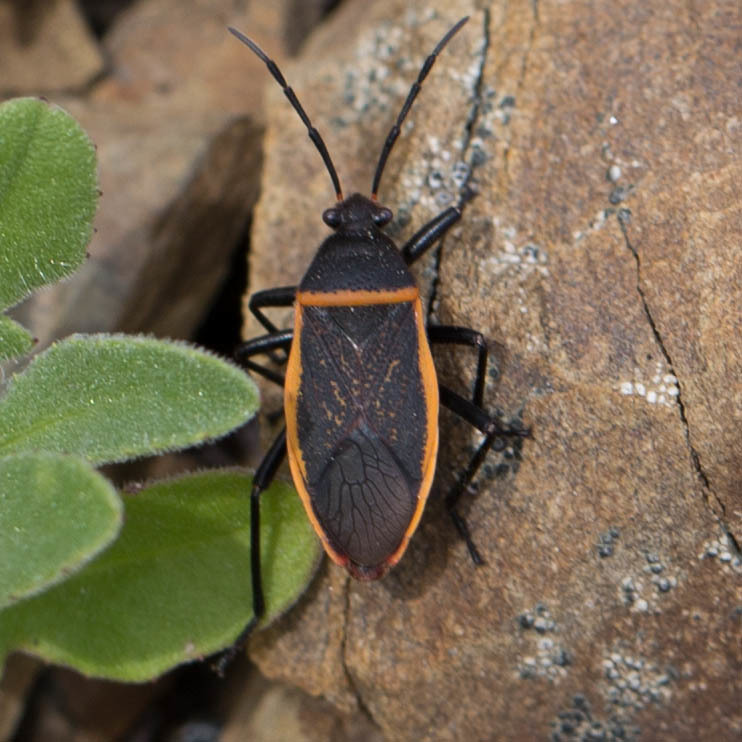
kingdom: Animalia
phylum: Arthropoda
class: Insecta
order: Hemiptera
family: Largidae
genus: Largus
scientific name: Largus californicus
